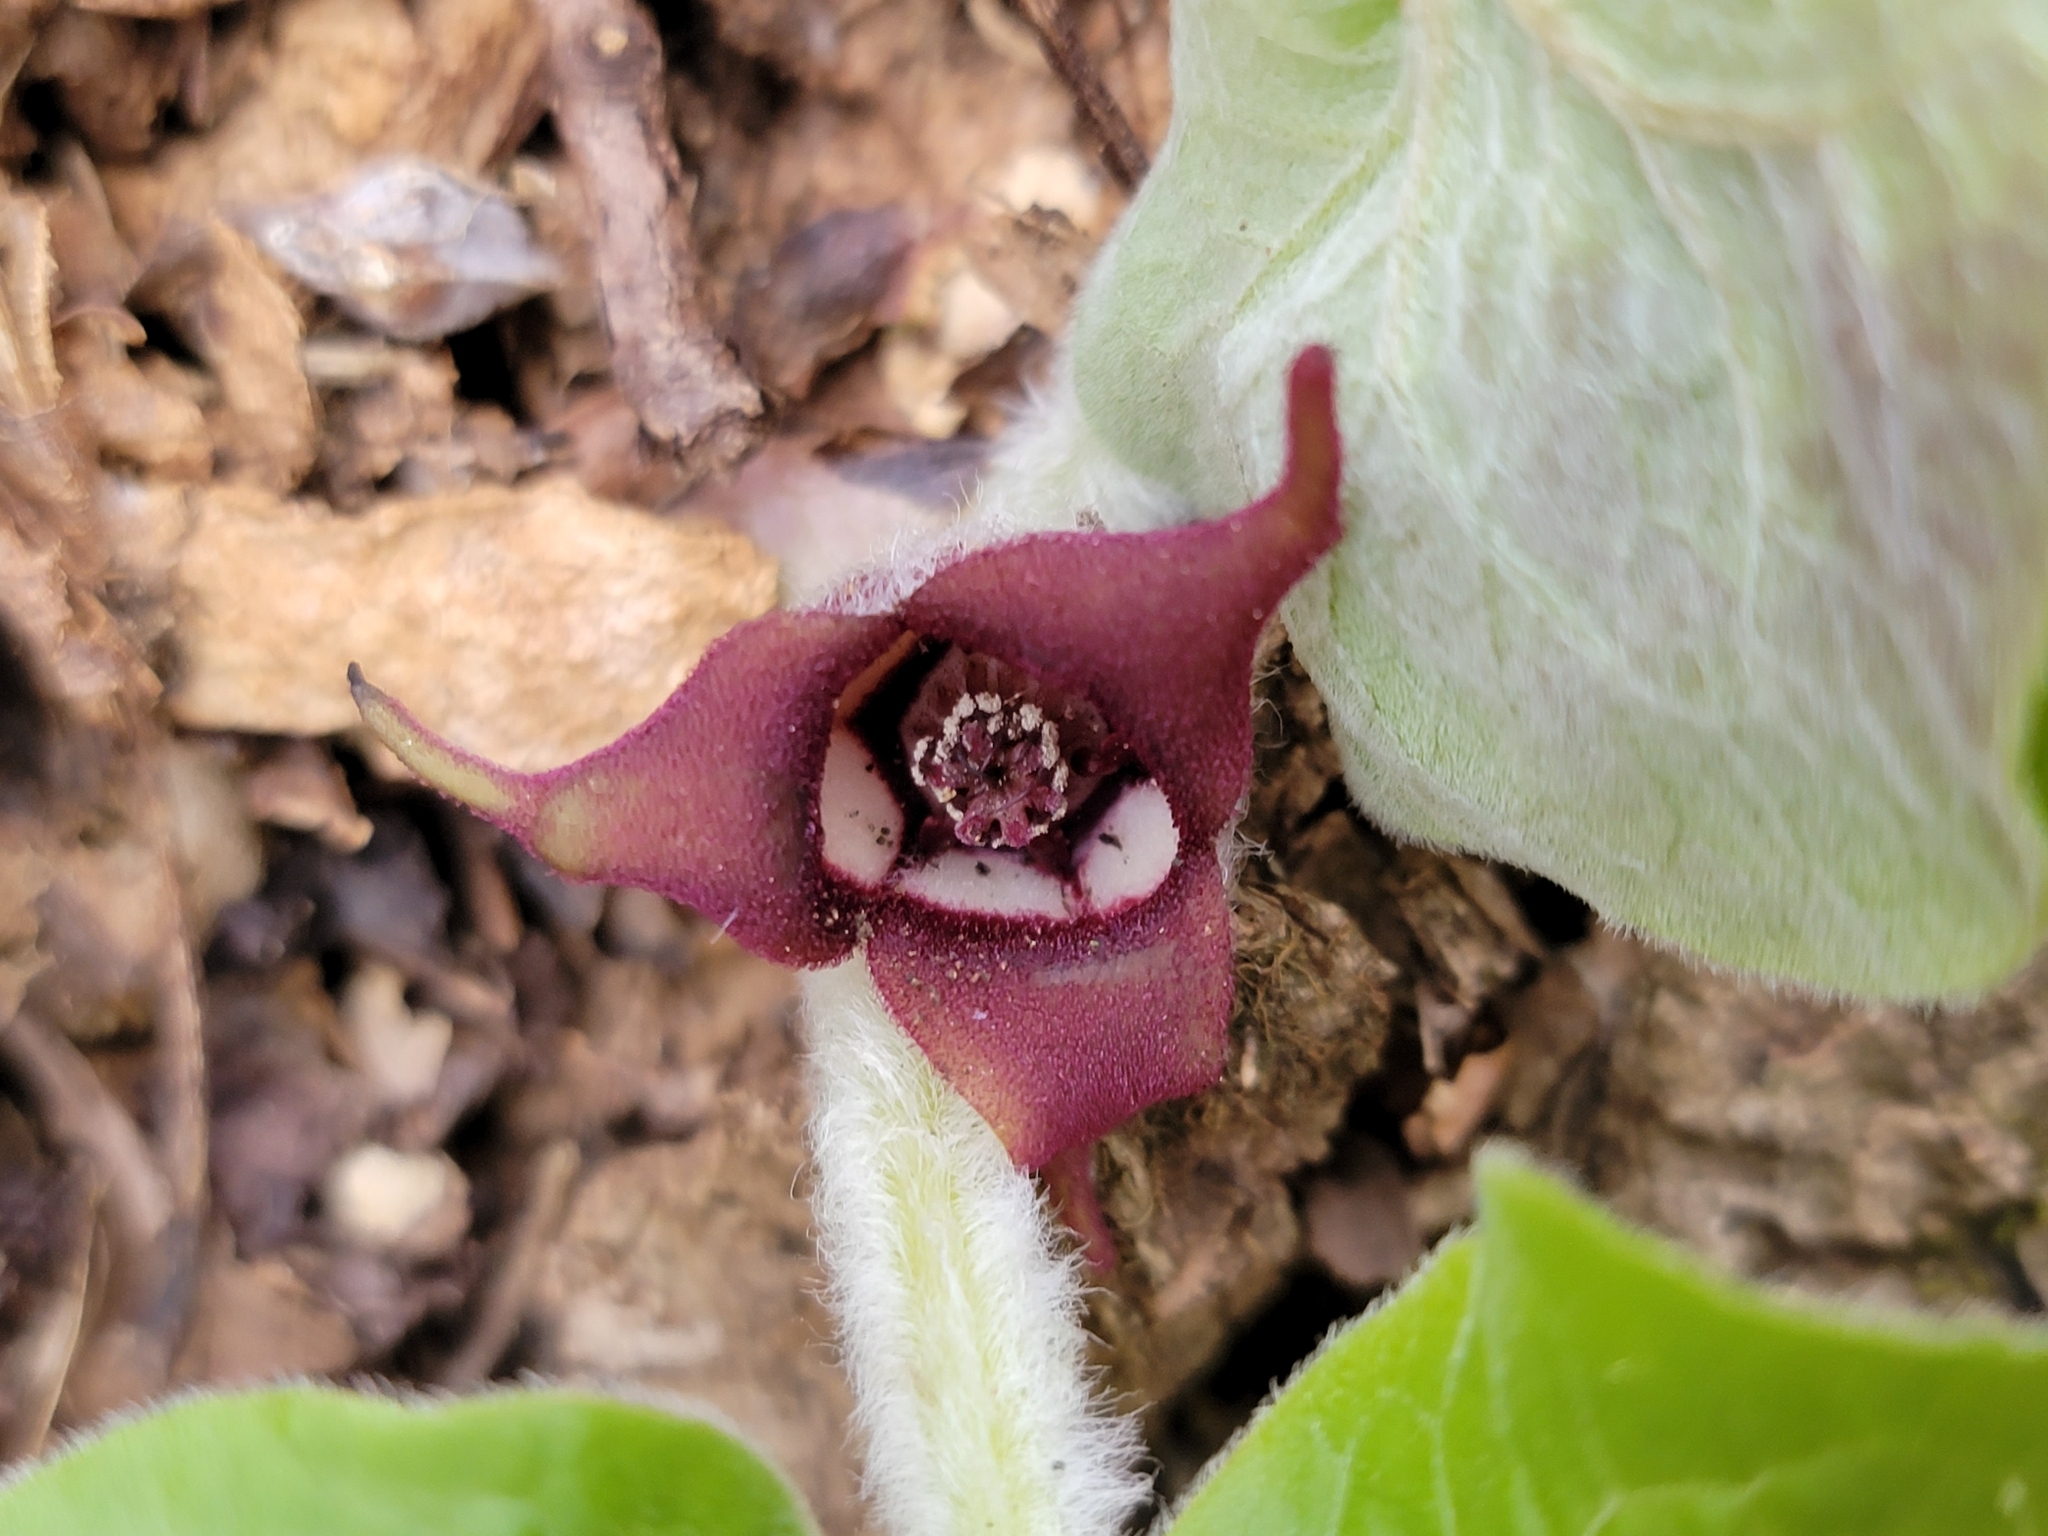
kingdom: Plantae
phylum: Tracheophyta
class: Magnoliopsida
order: Piperales
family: Aristolochiaceae
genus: Asarum
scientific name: Asarum canadense
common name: Wild ginger
